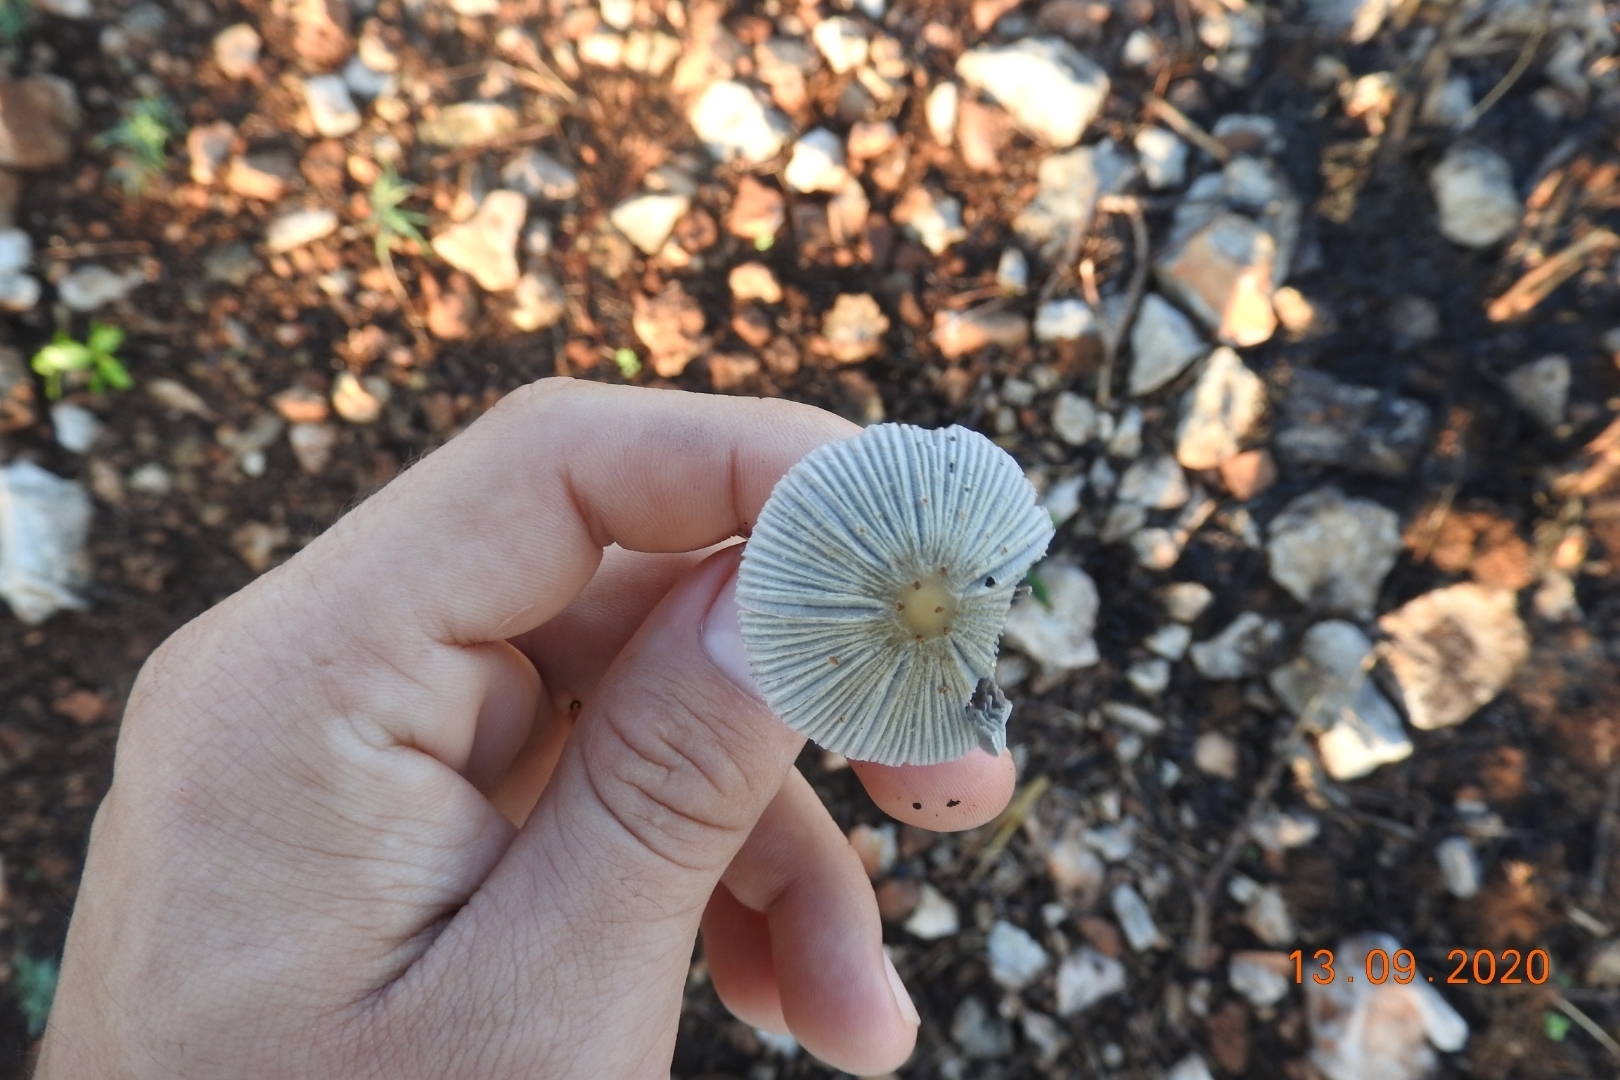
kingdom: Fungi
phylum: Basidiomycota
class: Agaricomycetes
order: Agaricales
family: Psathyrellaceae
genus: Coprinellus
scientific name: Coprinellus arenicola
